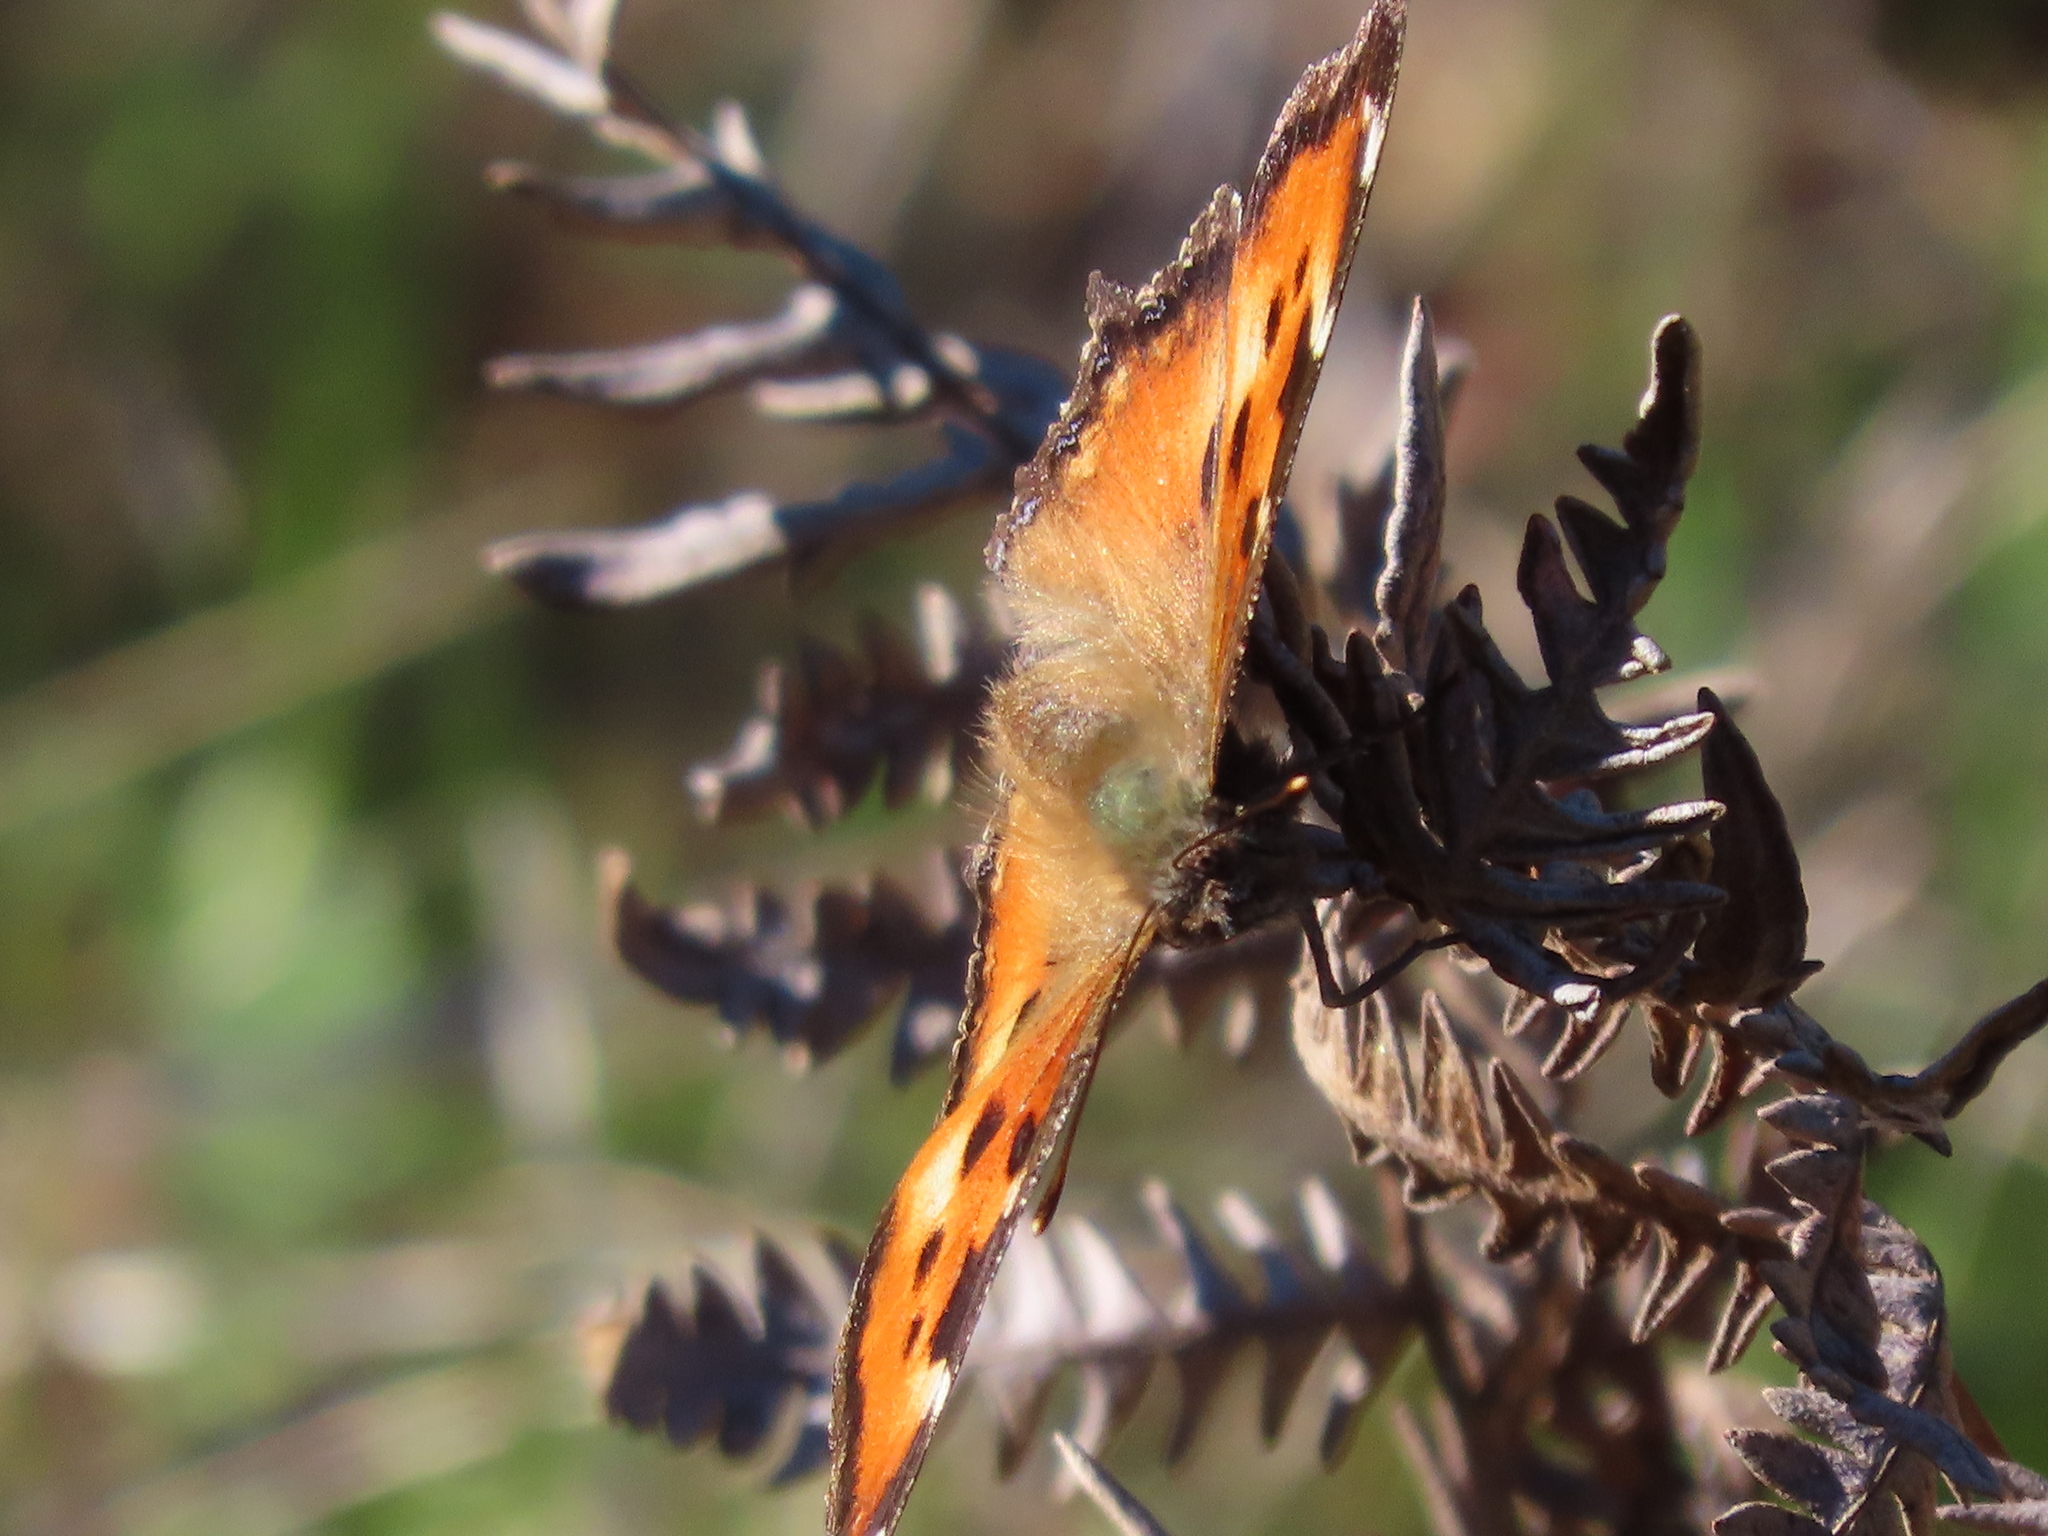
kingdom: Animalia
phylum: Arthropoda
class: Insecta
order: Lepidoptera
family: Nymphalidae
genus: Nymphalis
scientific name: Nymphalis californica
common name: California tortoiseshell
